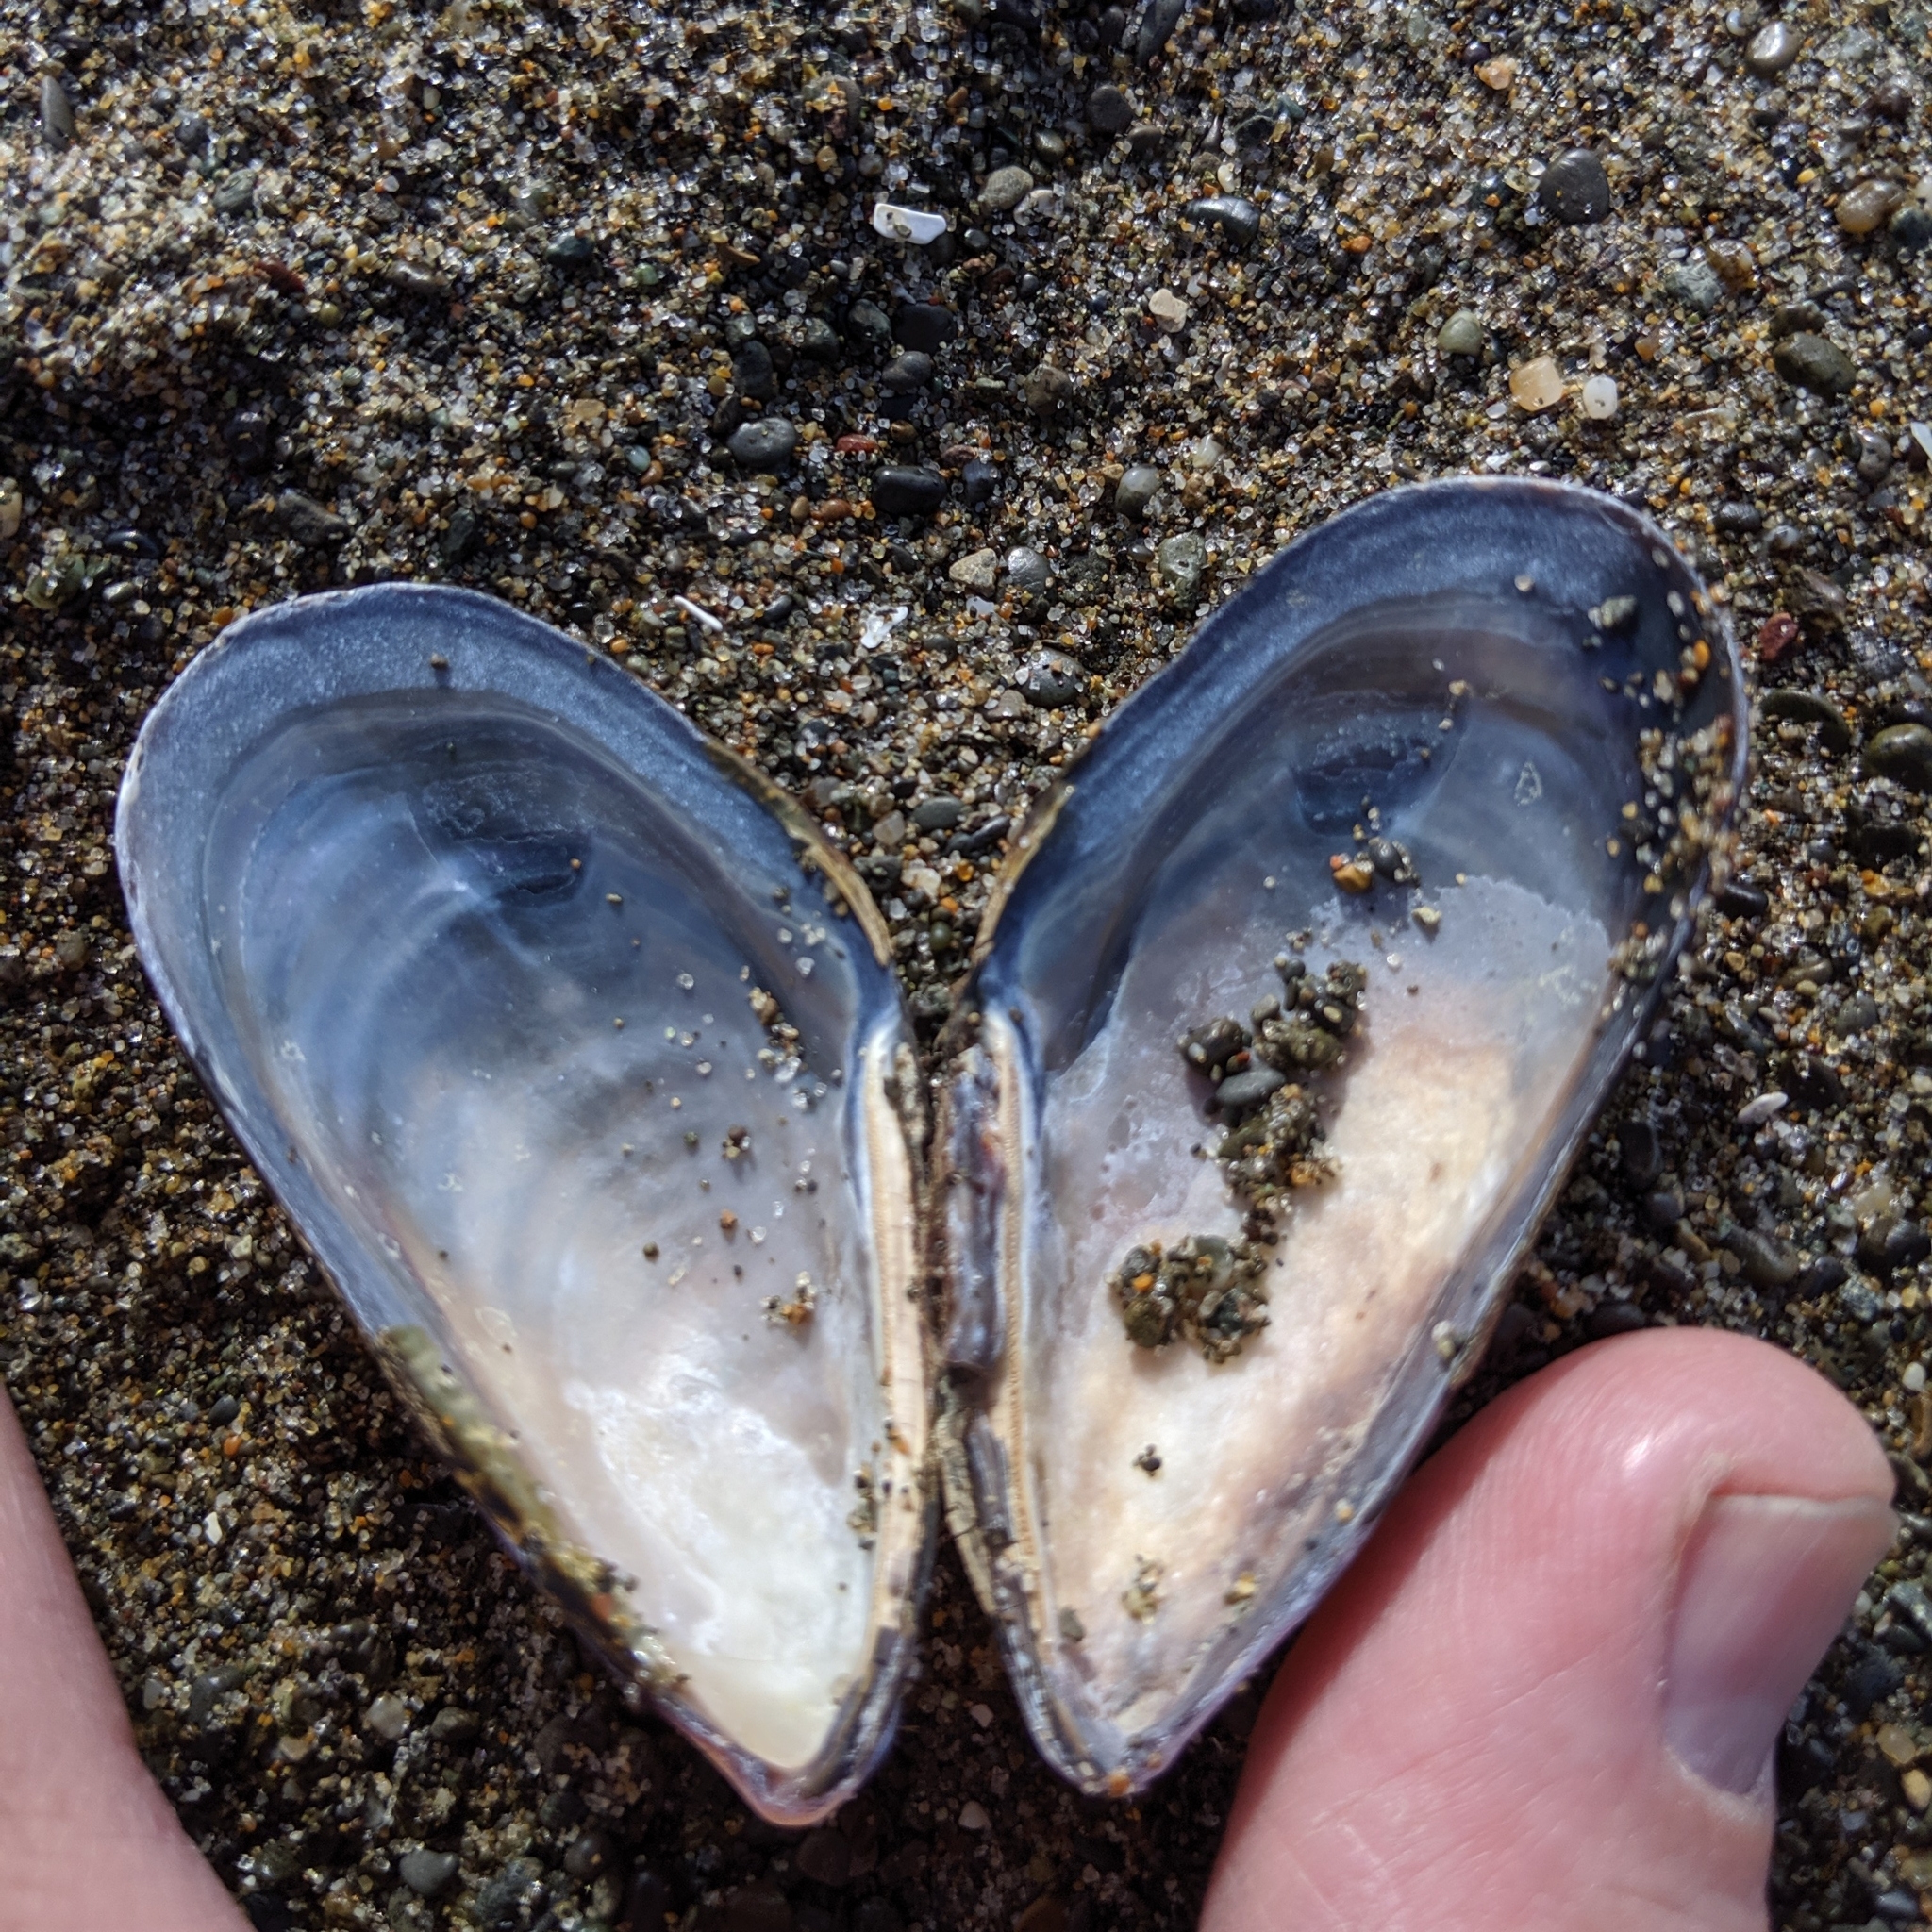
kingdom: Animalia
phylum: Mollusca
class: Bivalvia
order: Mytilida
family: Mytilidae
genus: Mytilus
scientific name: Mytilus californianus
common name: California mussel
